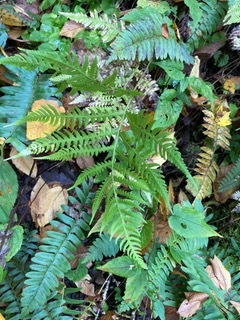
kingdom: Plantae
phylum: Tracheophyta
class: Polypodiopsida
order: Polypodiales
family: Thelypteridaceae
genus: Phegopteris
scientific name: Phegopteris hexagonoptera
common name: Broad beech fern
